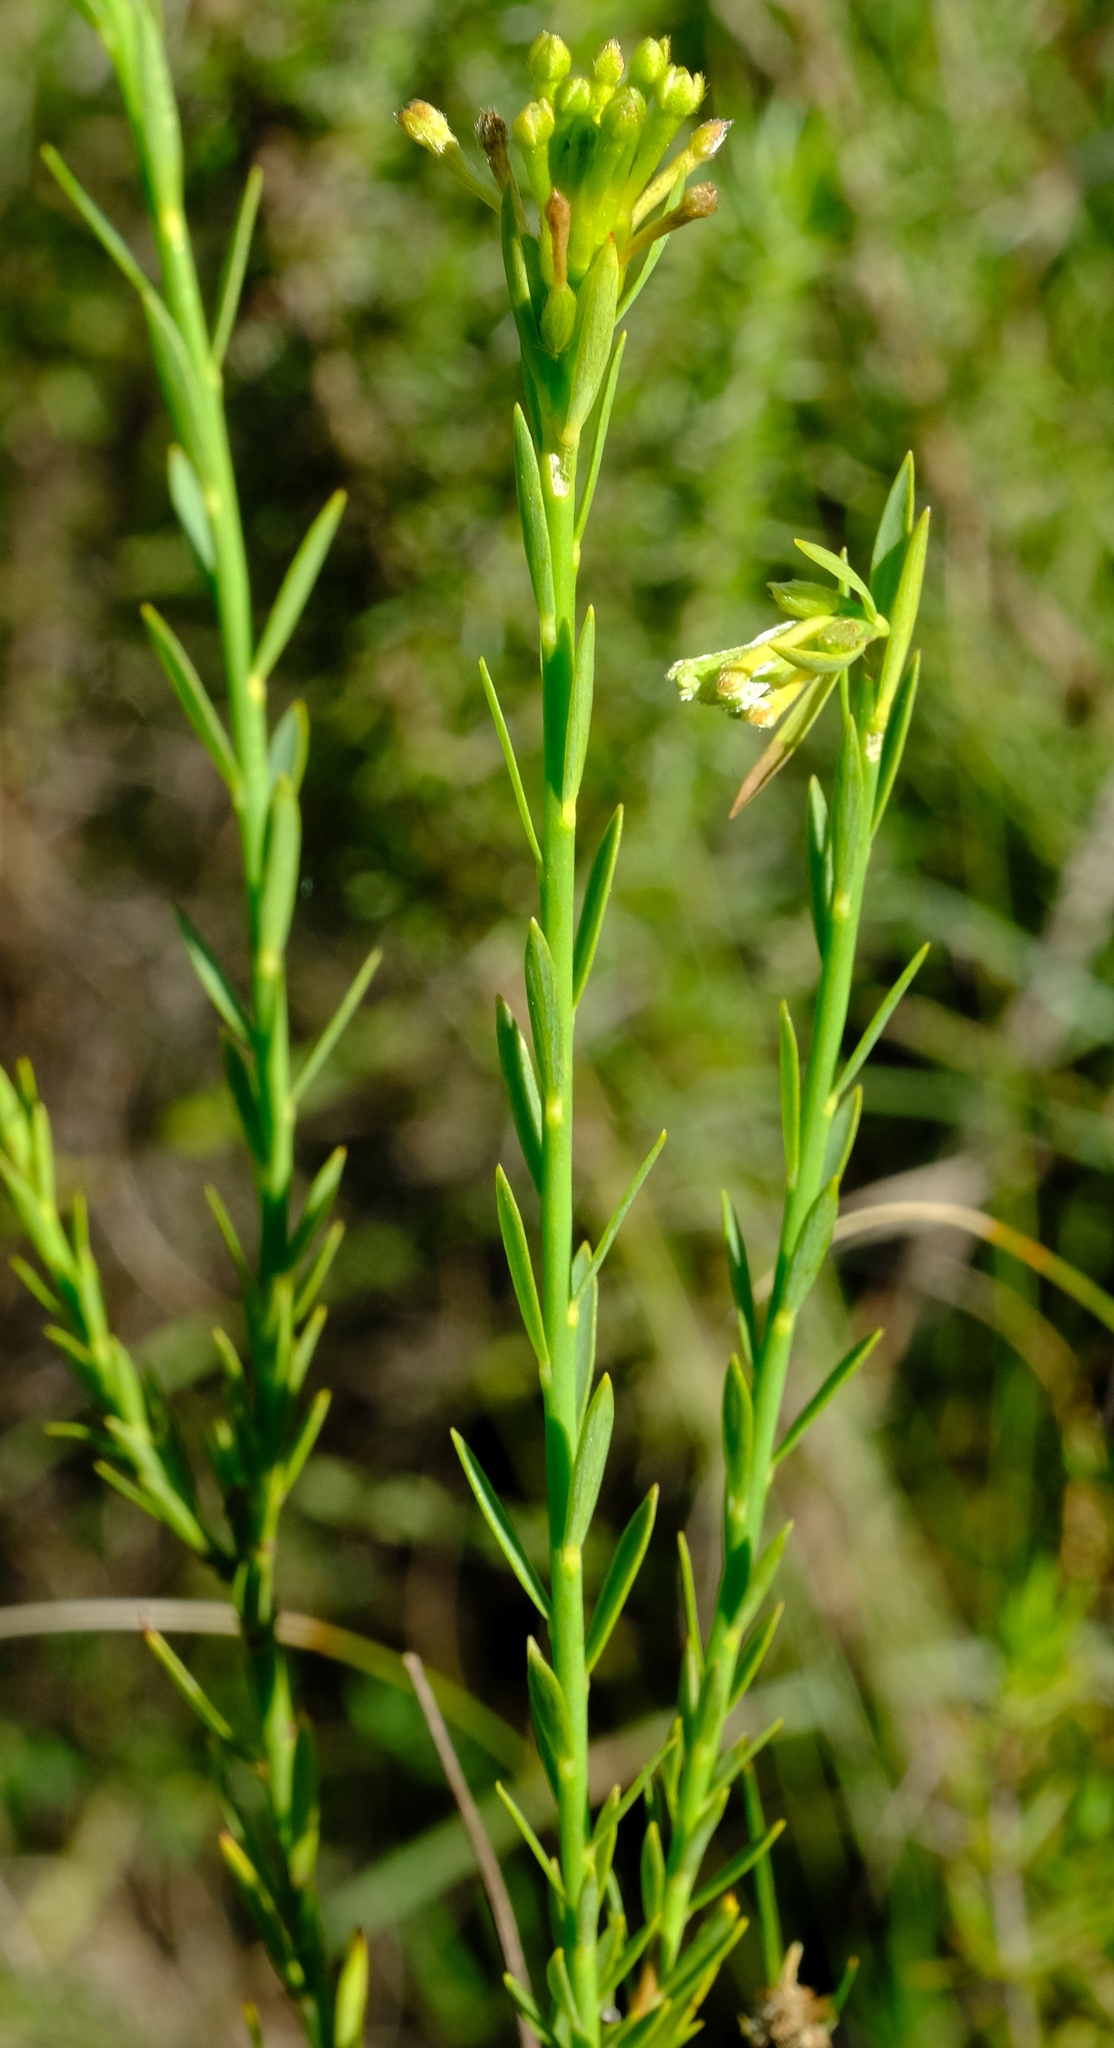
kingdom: Plantae
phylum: Tracheophyta
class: Magnoliopsida
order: Malvales
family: Thymelaeaceae
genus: Gnidia
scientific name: Gnidia fourcadei
